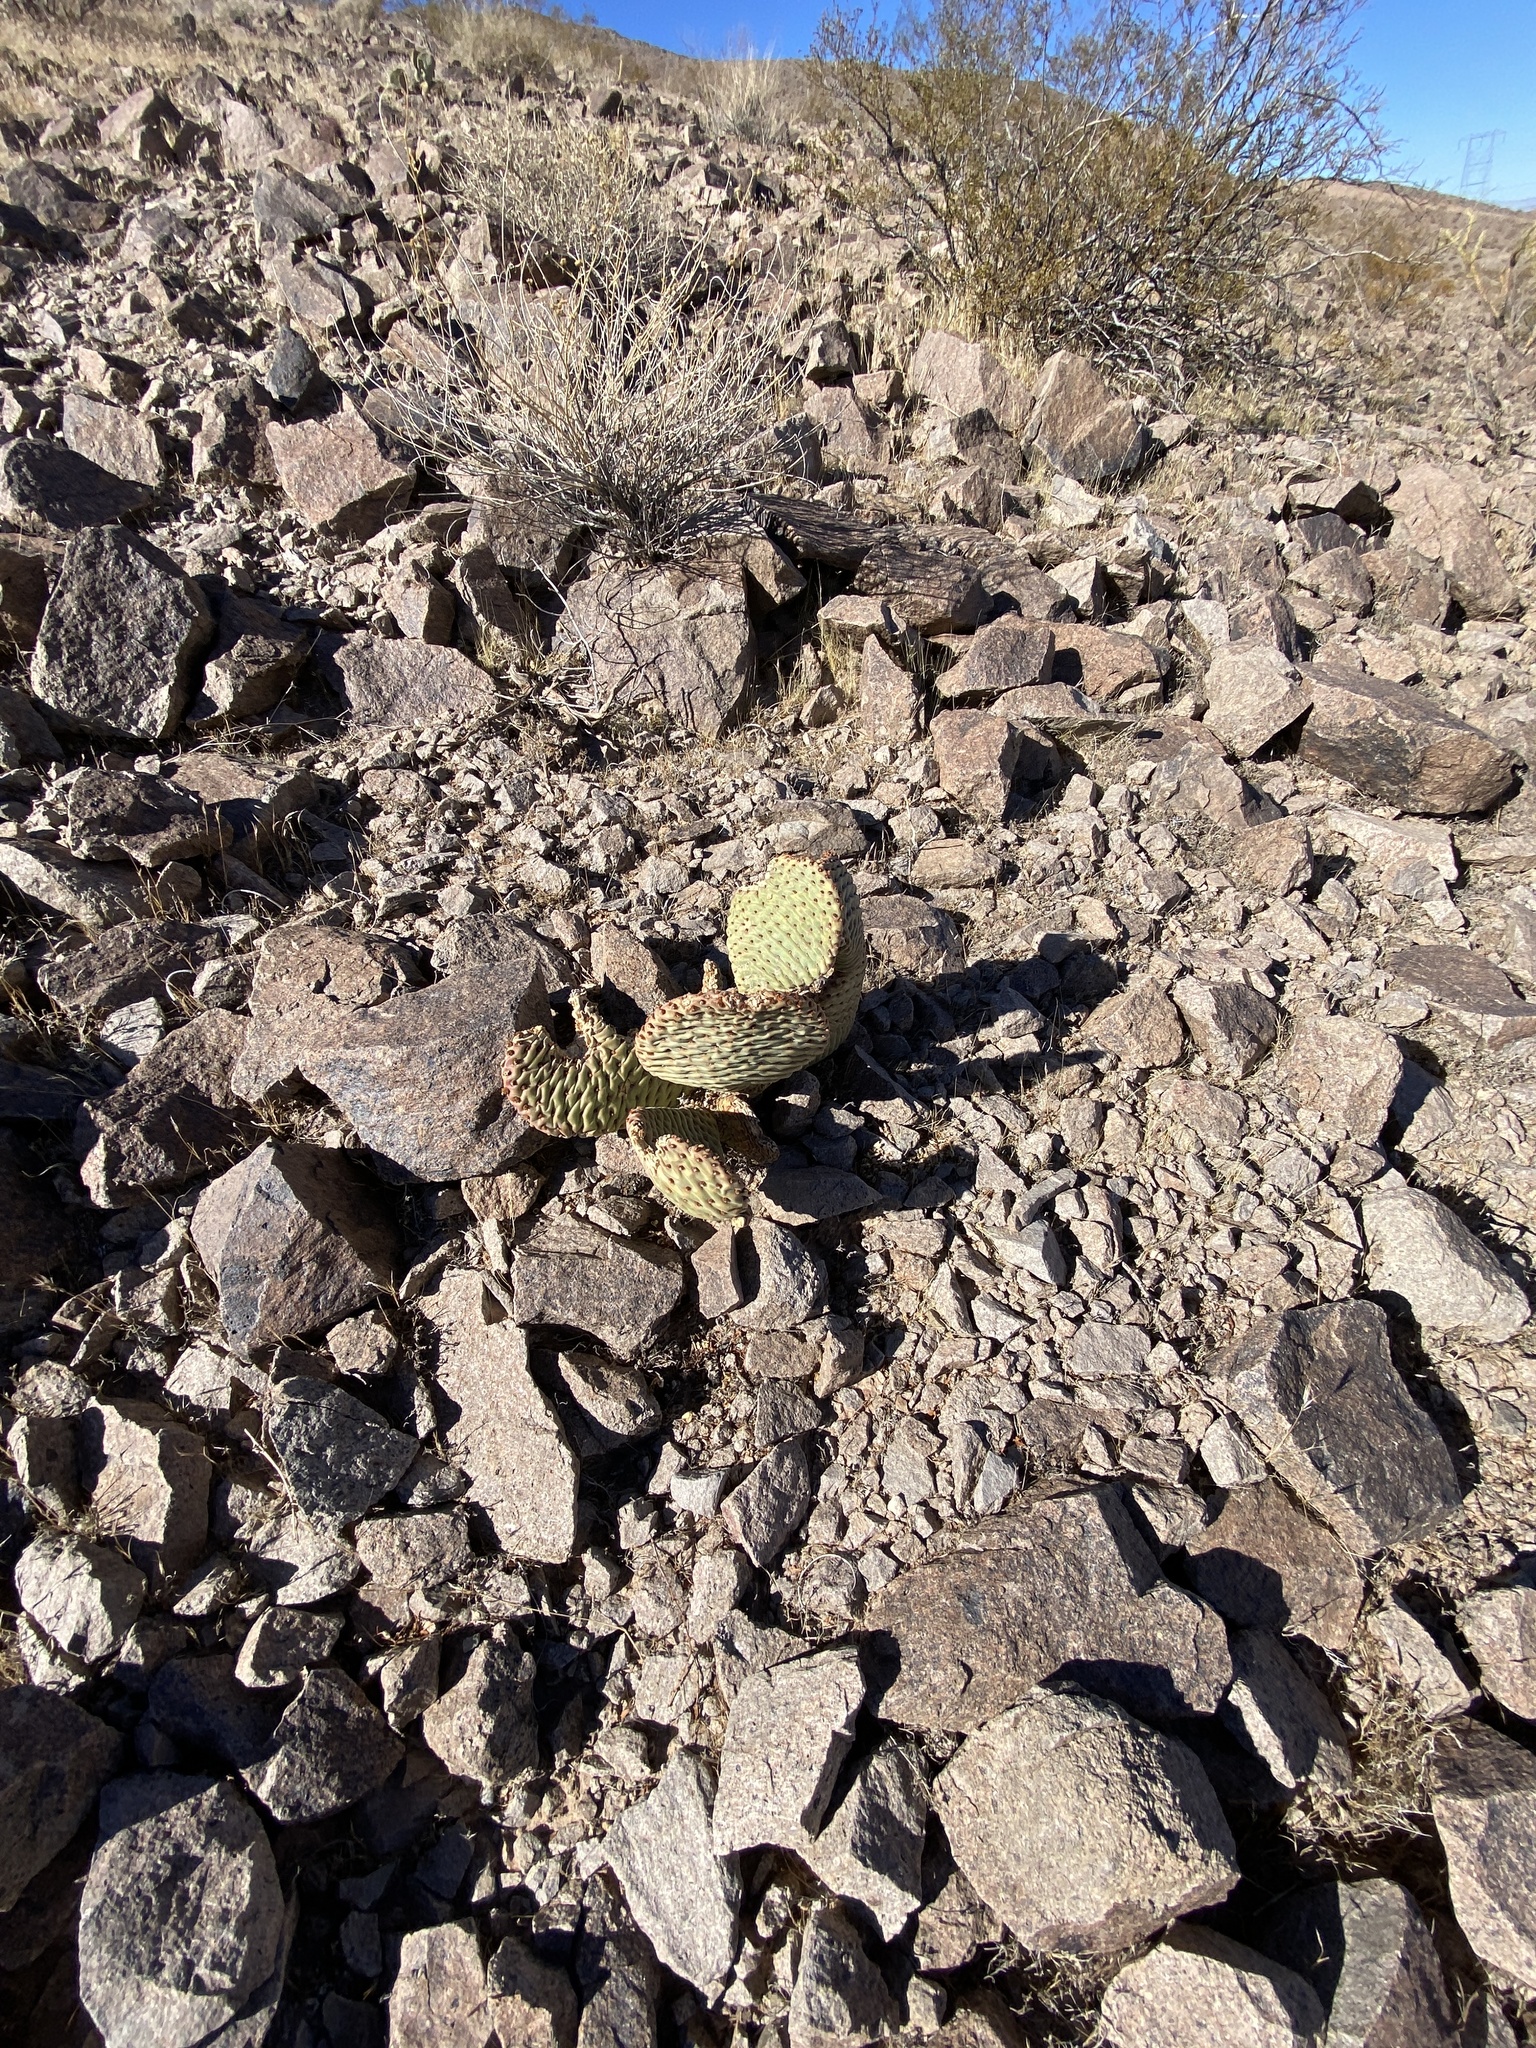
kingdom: Plantae
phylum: Tracheophyta
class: Magnoliopsida
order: Caryophyllales
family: Cactaceae
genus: Opuntia
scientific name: Opuntia basilaris
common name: Beavertail prickly-pear
